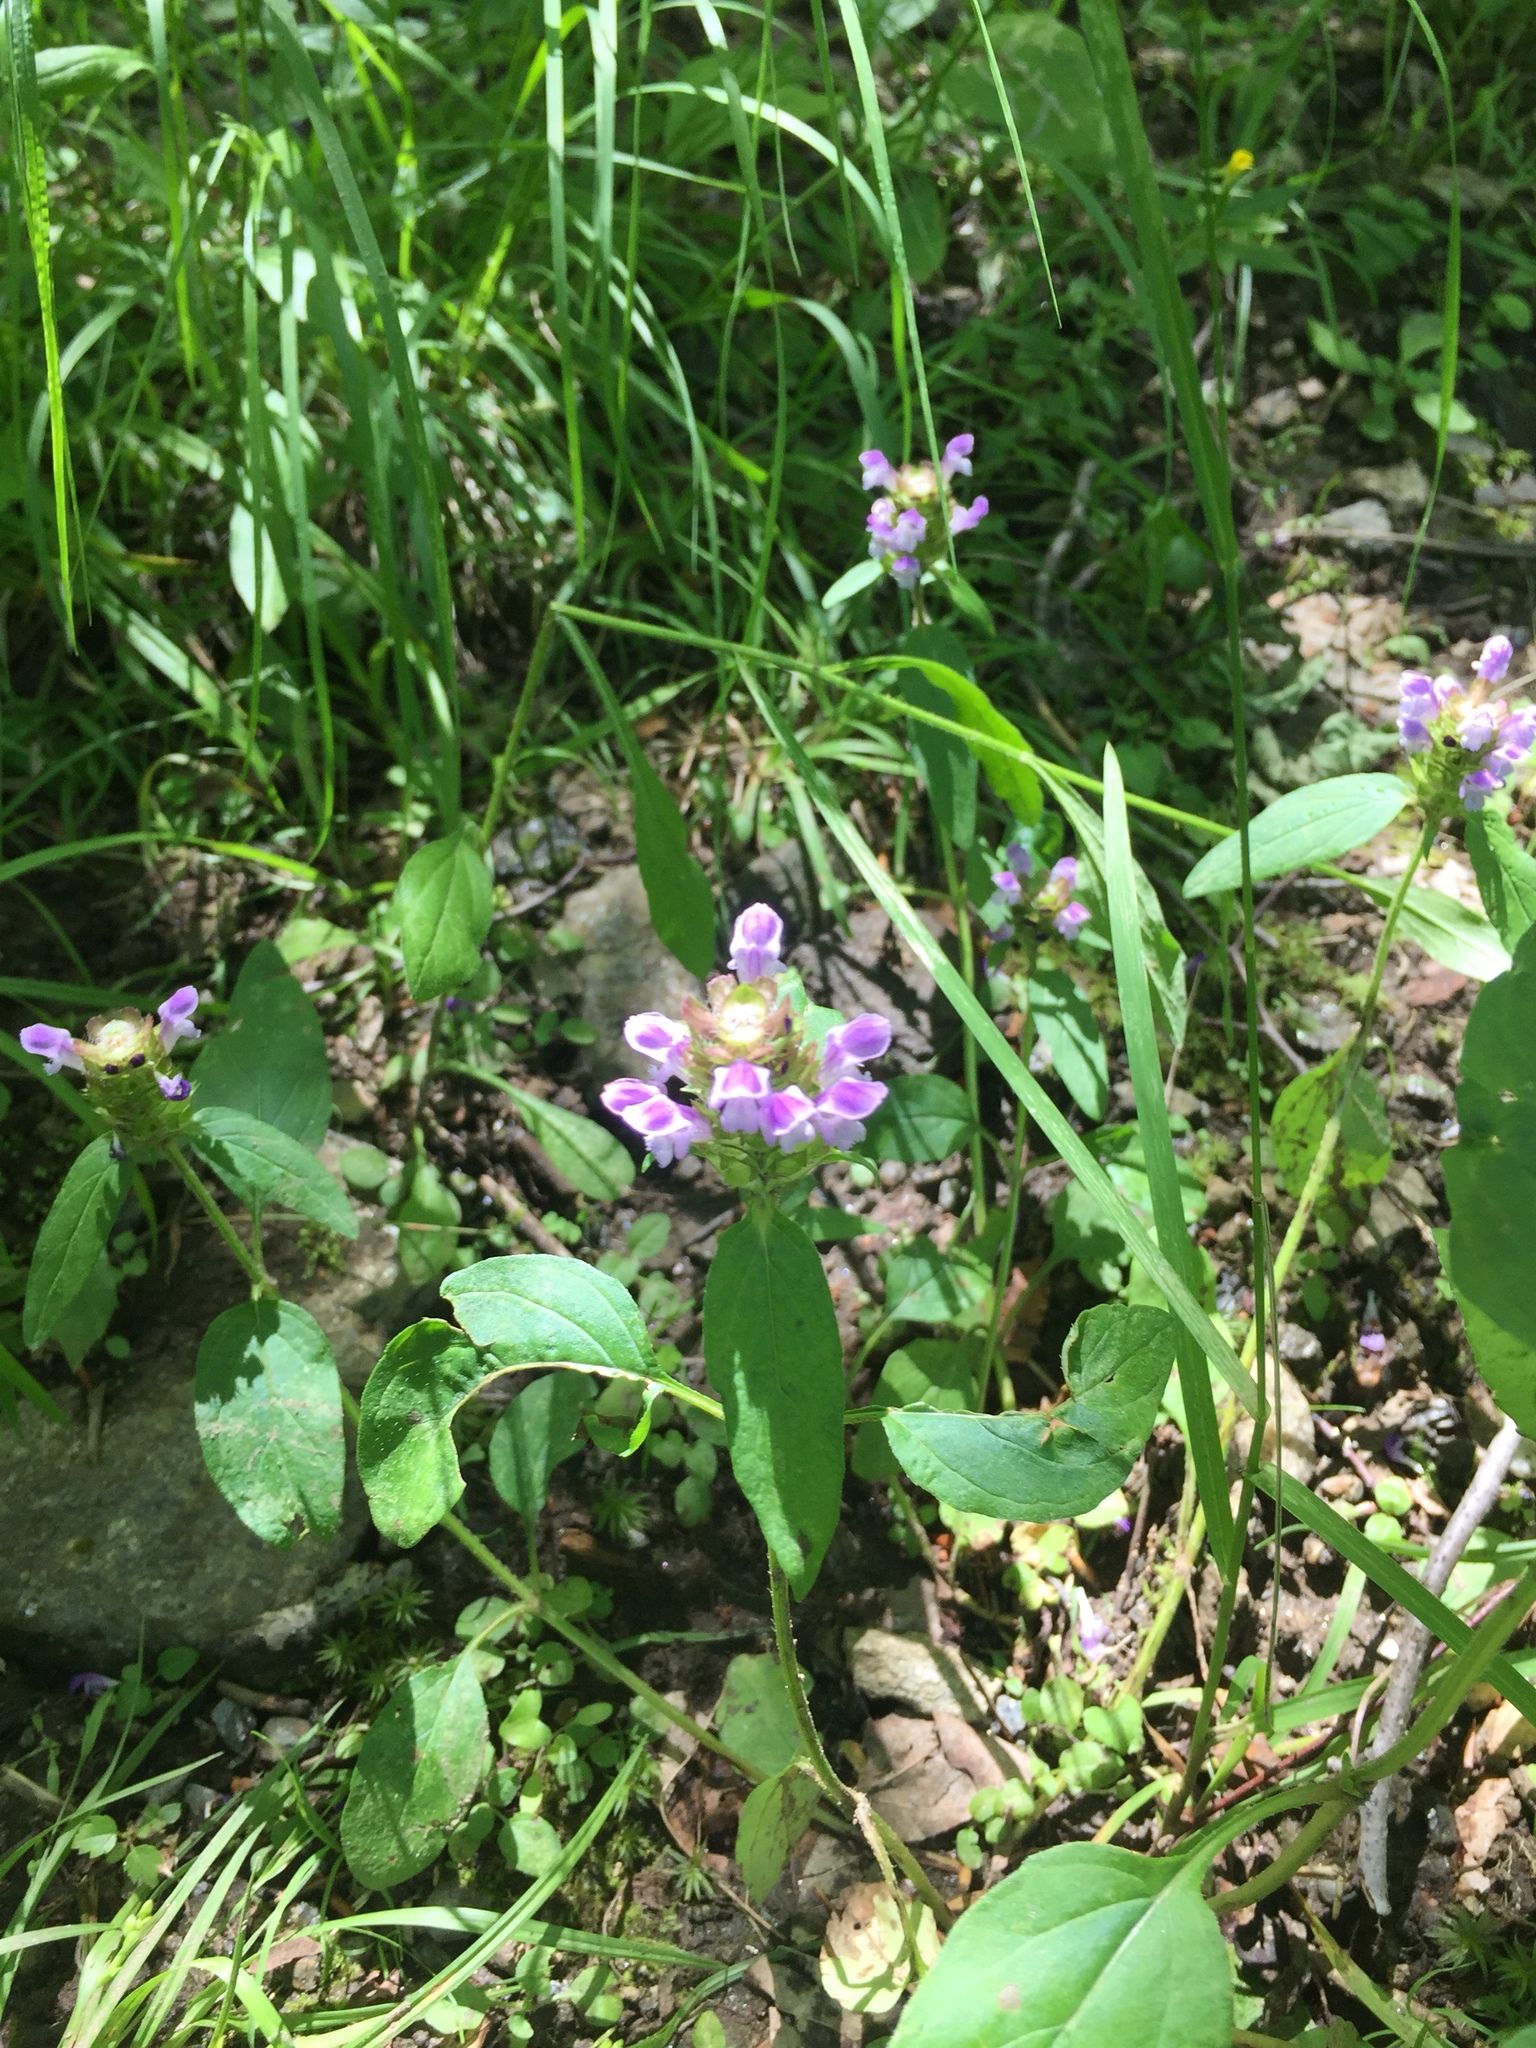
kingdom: Plantae
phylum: Tracheophyta
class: Magnoliopsida
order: Lamiales
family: Lamiaceae
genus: Prunella
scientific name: Prunella vulgaris
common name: Heal-all
